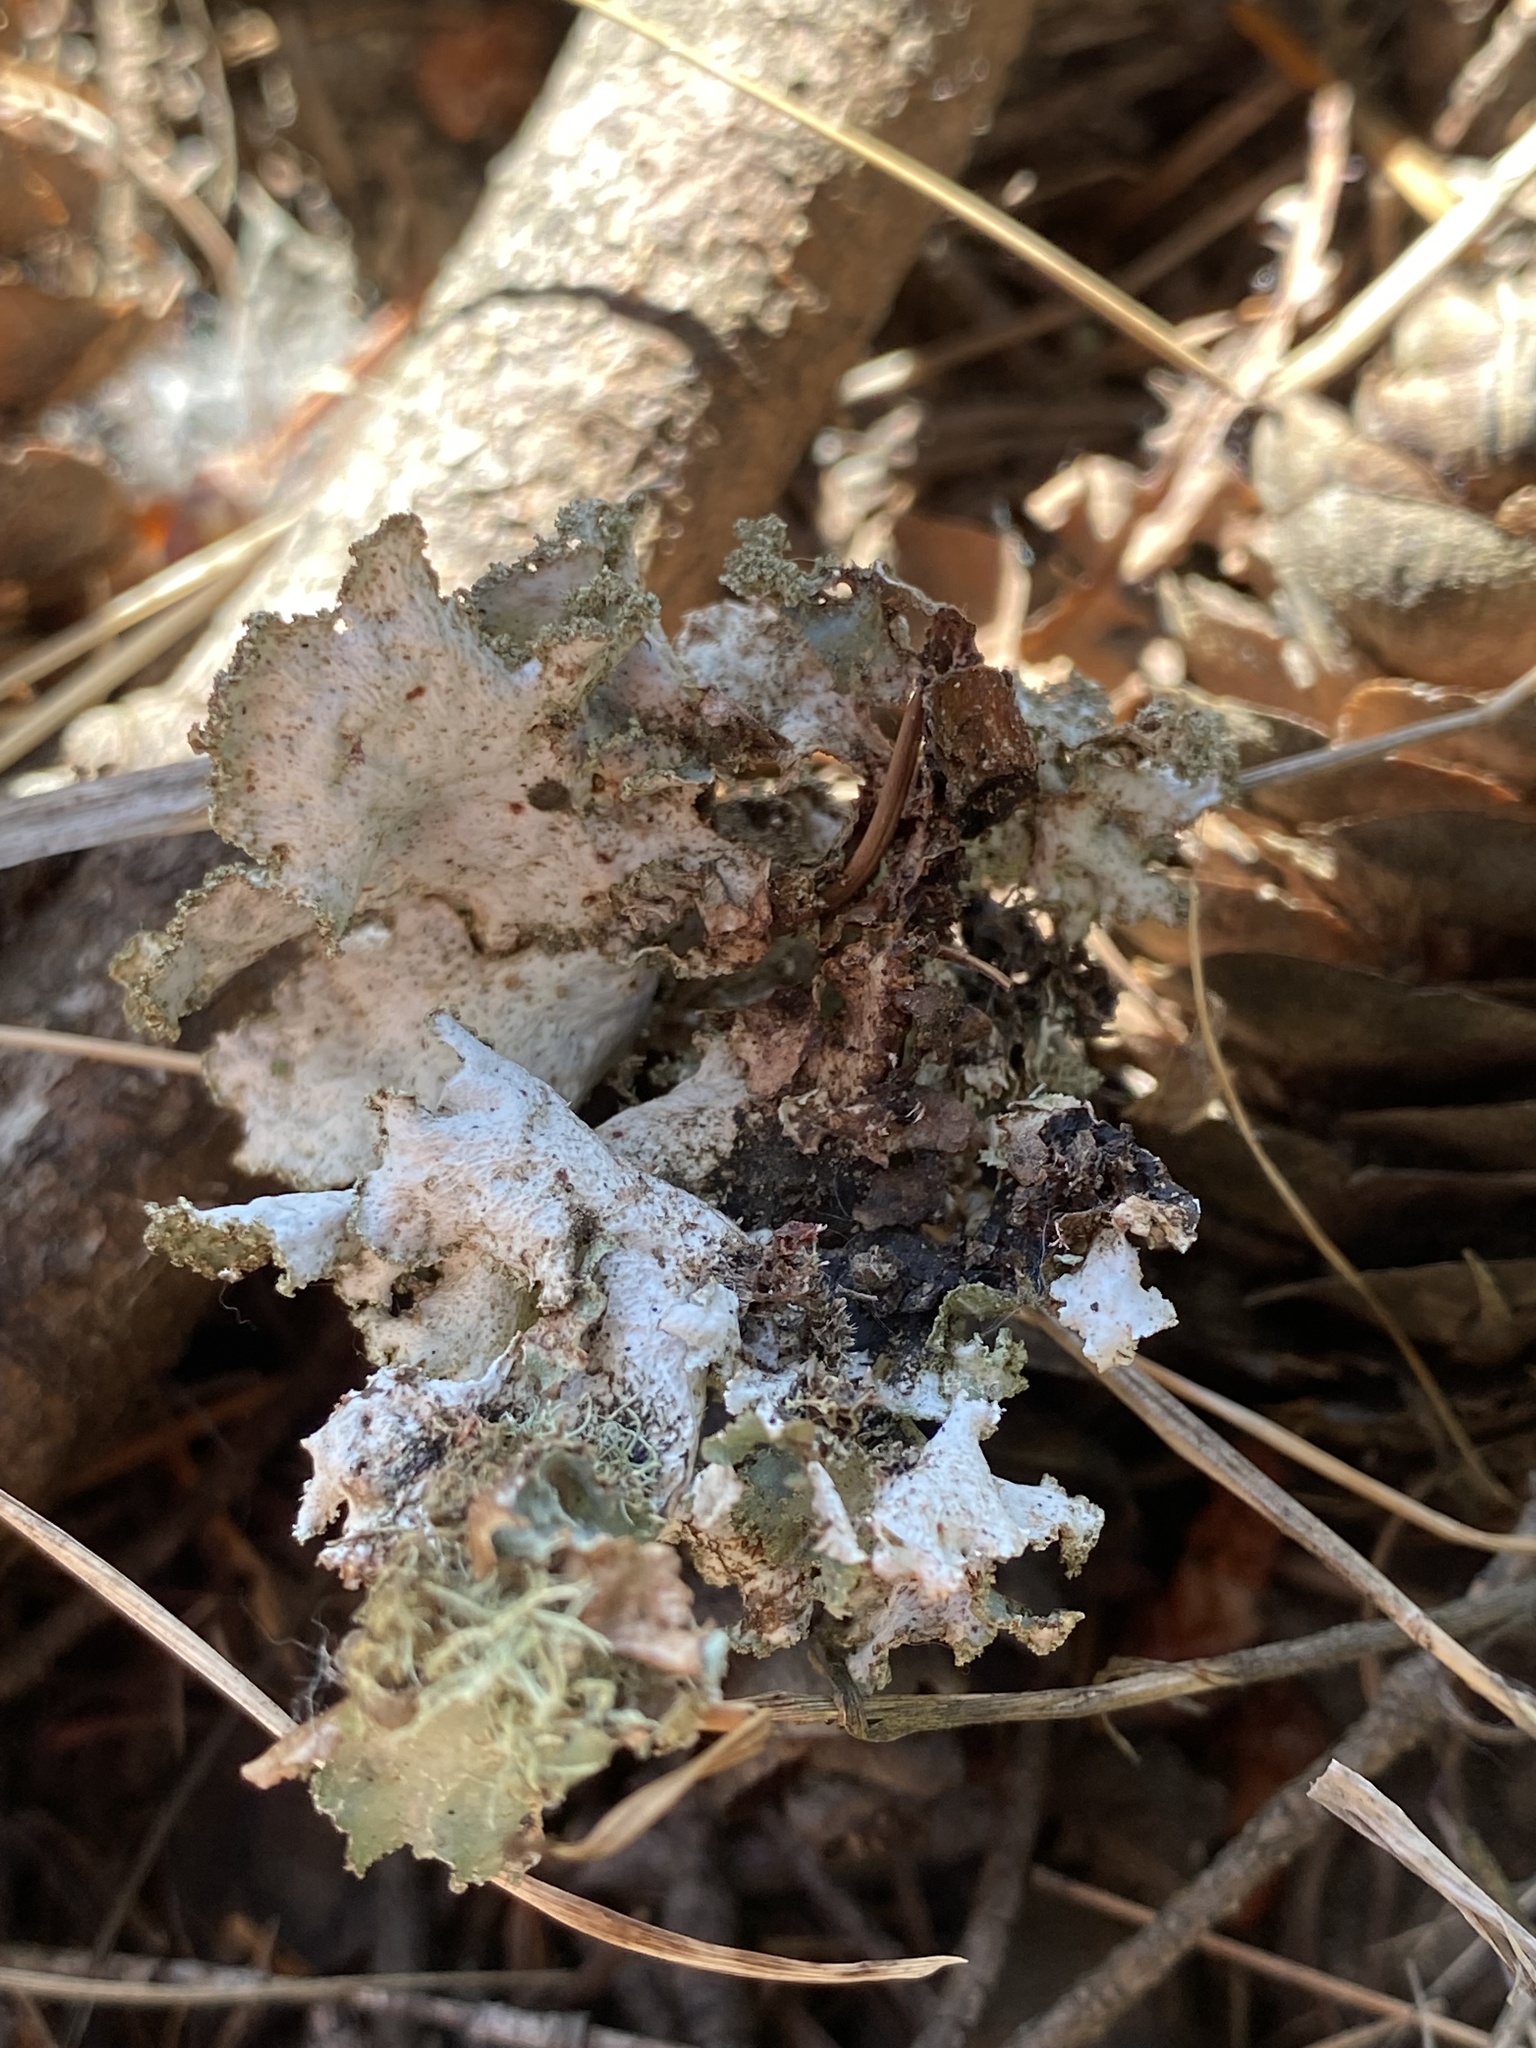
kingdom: Fungi
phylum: Ascomycota
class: Lecanoromycetes
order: Lecanorales
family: Parmeliaceae
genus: Platismatia
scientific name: Platismatia glauca
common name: Varied rag lichen
